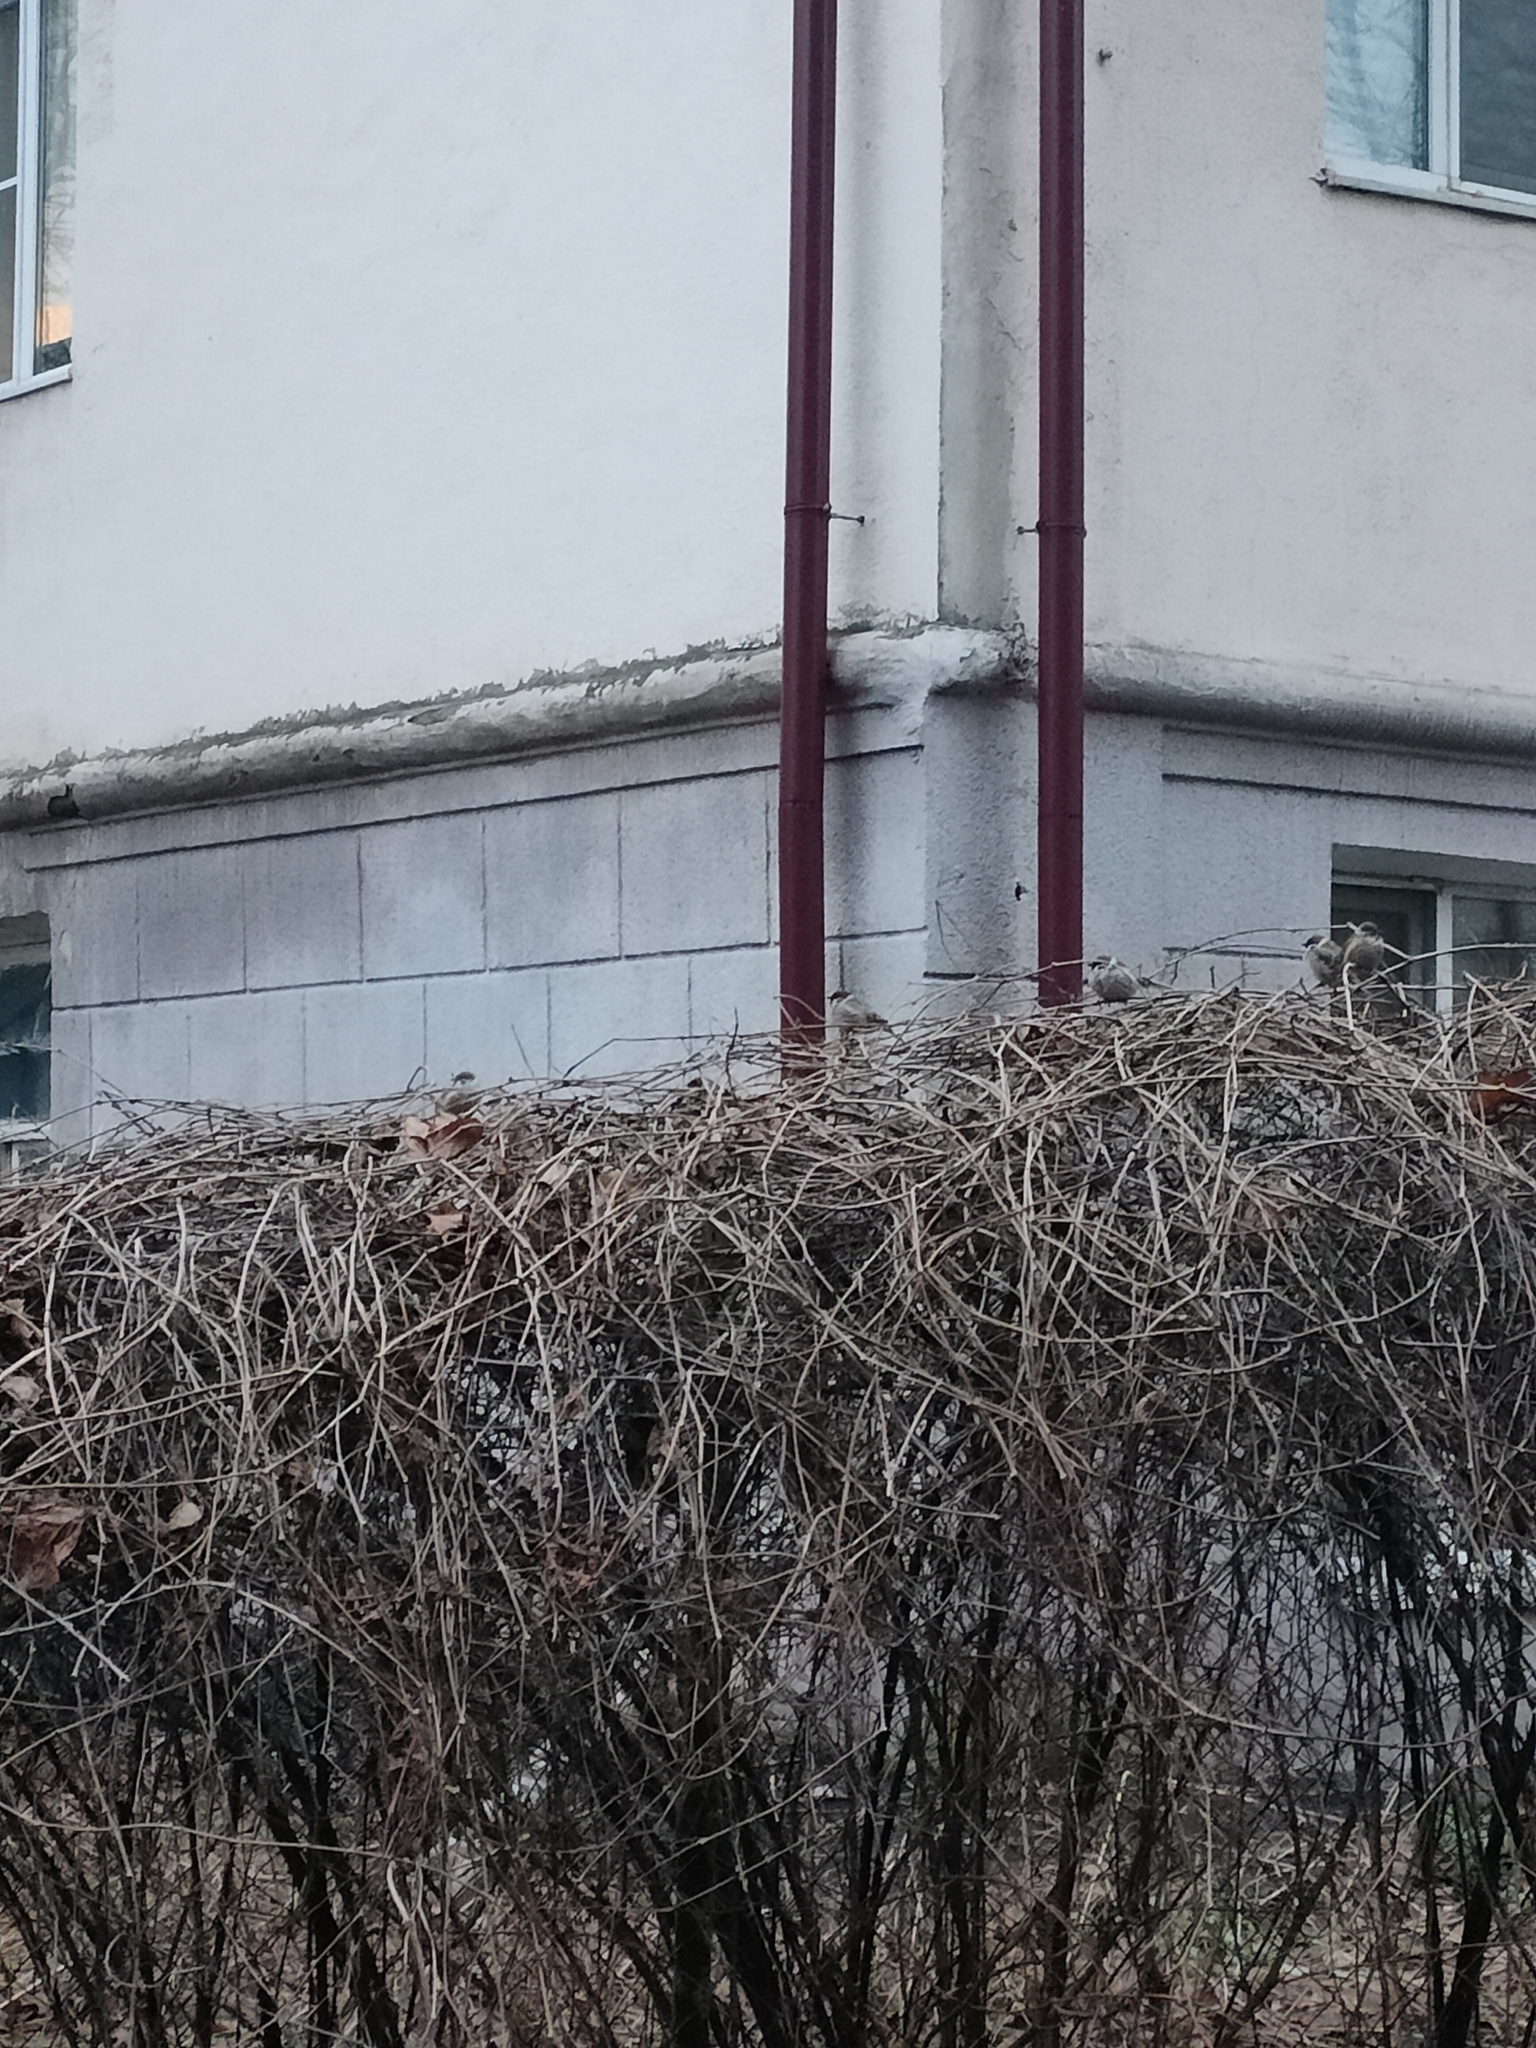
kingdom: Animalia
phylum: Chordata
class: Aves
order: Passeriformes
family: Passeridae
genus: Passer
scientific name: Passer montanus
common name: Eurasian tree sparrow
